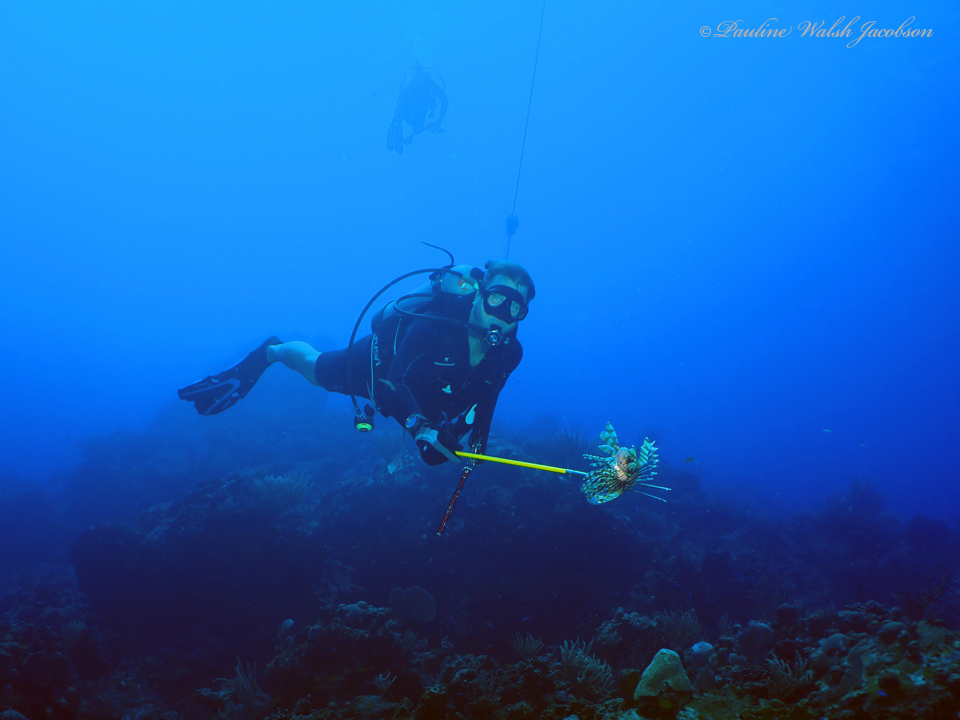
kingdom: Animalia
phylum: Chordata
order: Scorpaeniformes
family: Scorpaenidae
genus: Pterois
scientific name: Pterois volitans
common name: Lionfish
